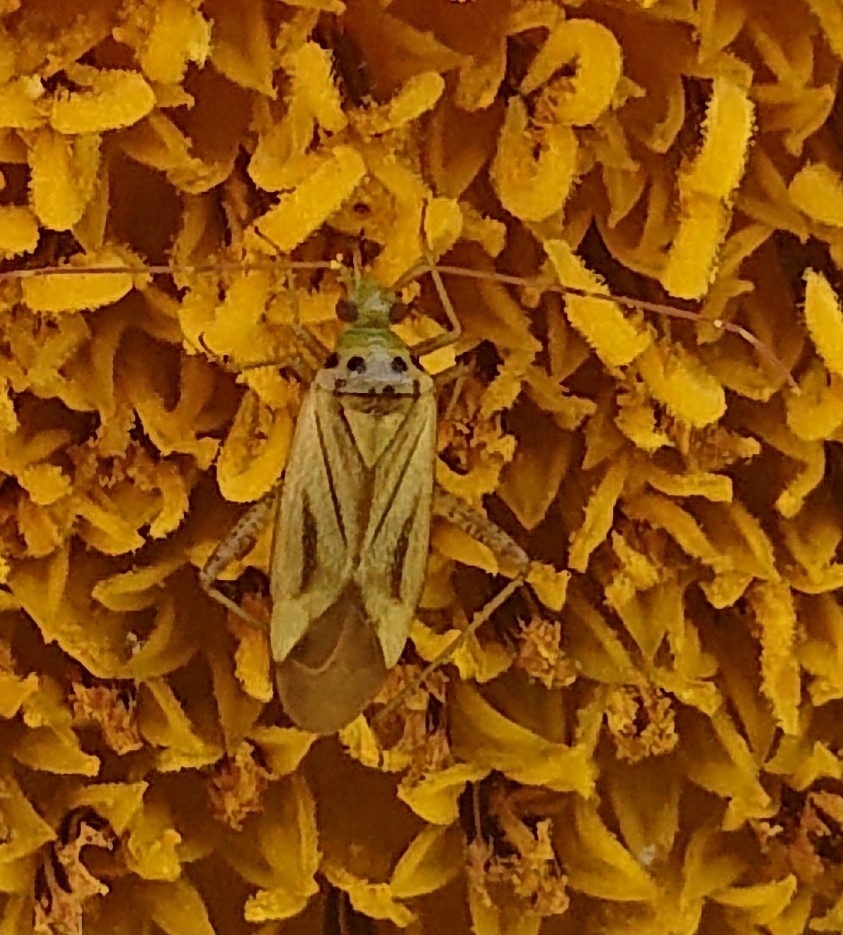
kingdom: Animalia
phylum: Arthropoda
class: Insecta
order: Hemiptera
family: Miridae
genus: Adelphocoris
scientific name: Adelphocoris quadripunctatus
